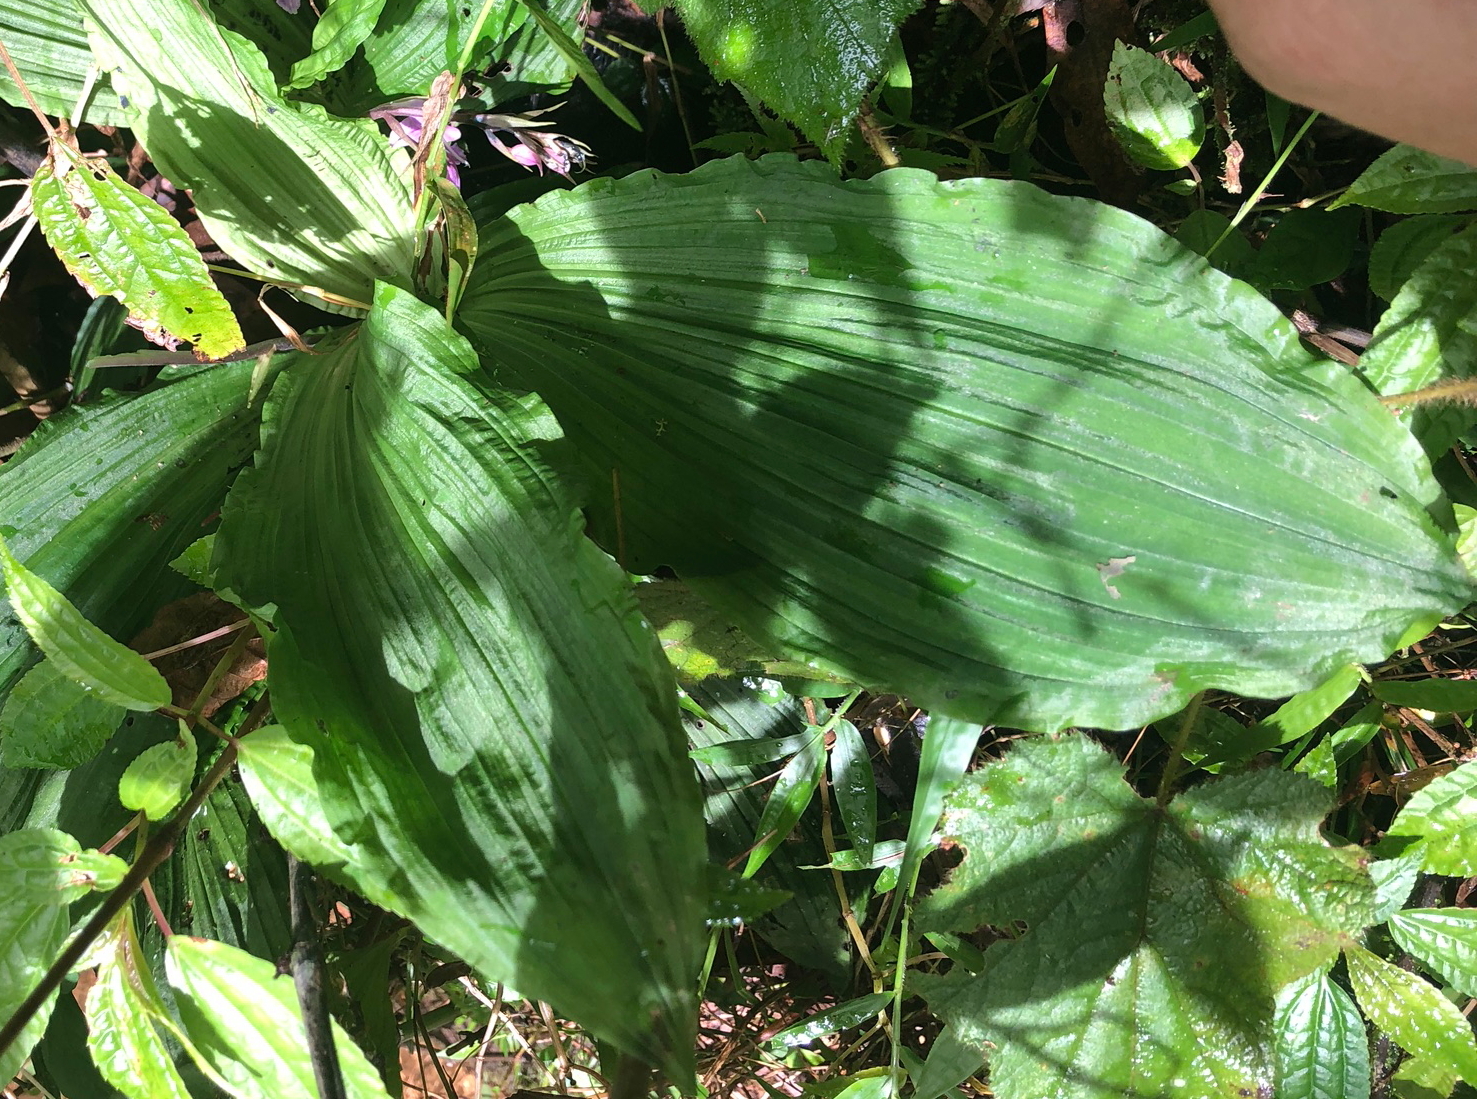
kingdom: Plantae
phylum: Tracheophyta
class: Liliopsida
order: Asparagales
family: Orchidaceae
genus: Calanthe
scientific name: Calanthe puberula
